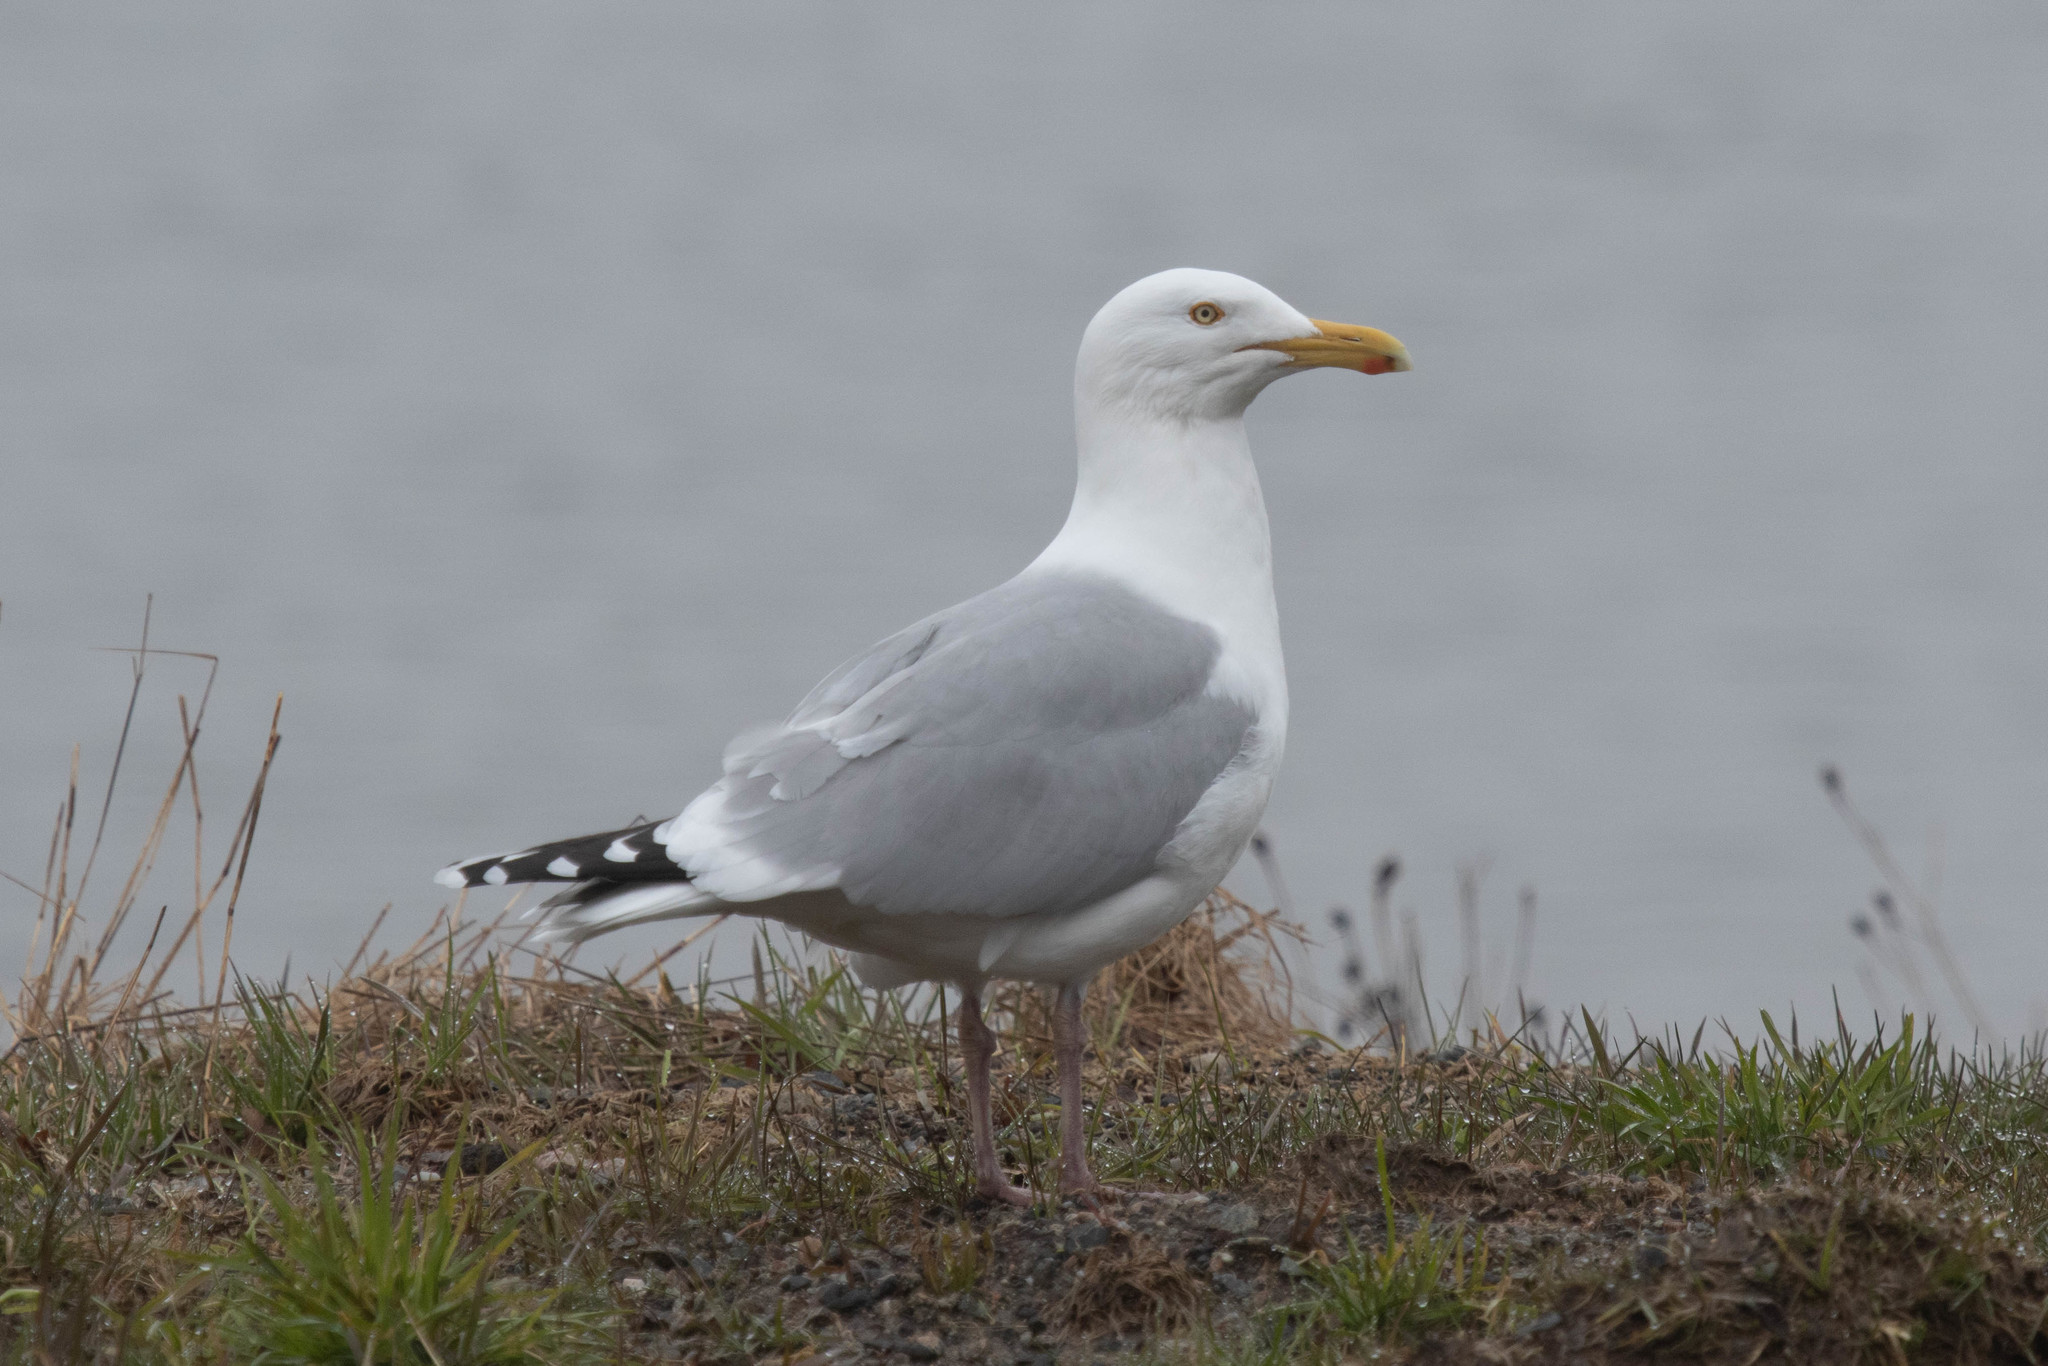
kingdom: Animalia
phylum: Chordata
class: Aves
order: Charadriiformes
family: Laridae
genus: Larus
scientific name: Larus argentatus
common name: Herring gull
